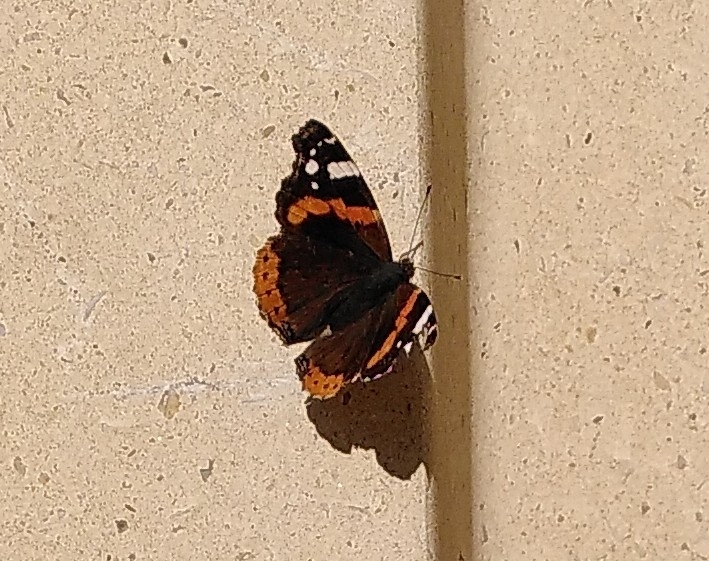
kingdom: Animalia
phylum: Arthropoda
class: Insecta
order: Lepidoptera
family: Nymphalidae
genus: Vanessa
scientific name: Vanessa atalanta
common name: Red admiral
